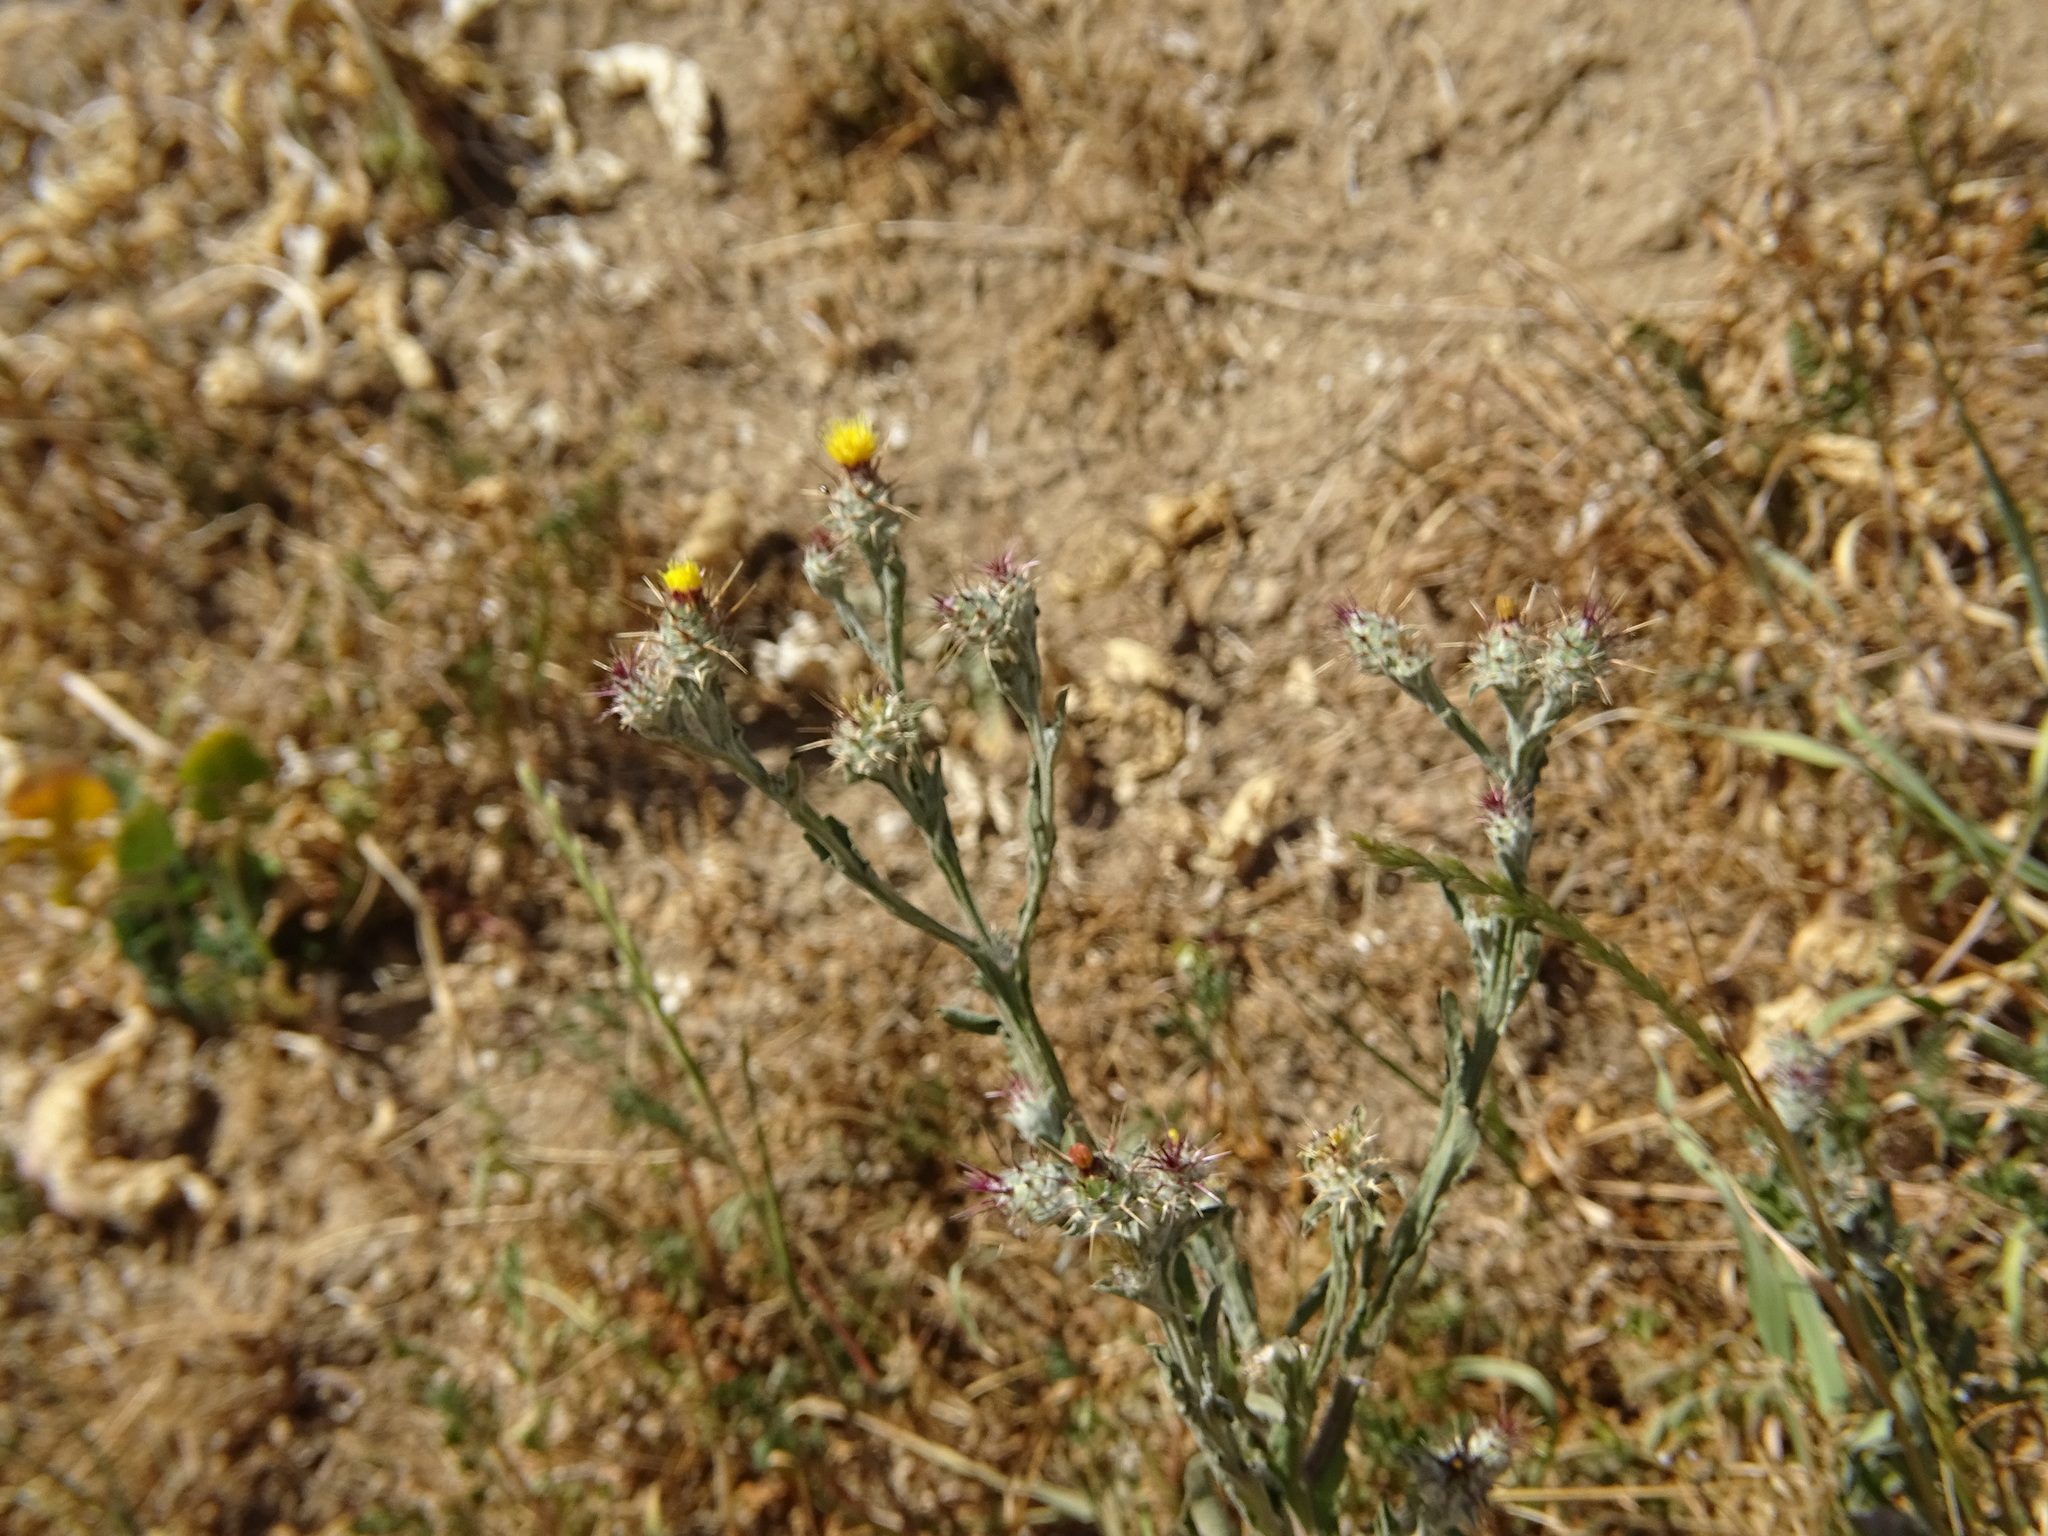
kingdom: Plantae
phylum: Tracheophyta
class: Magnoliopsida
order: Asterales
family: Asteraceae
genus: Centaurea
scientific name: Centaurea melitensis
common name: Maltese star-thistle
